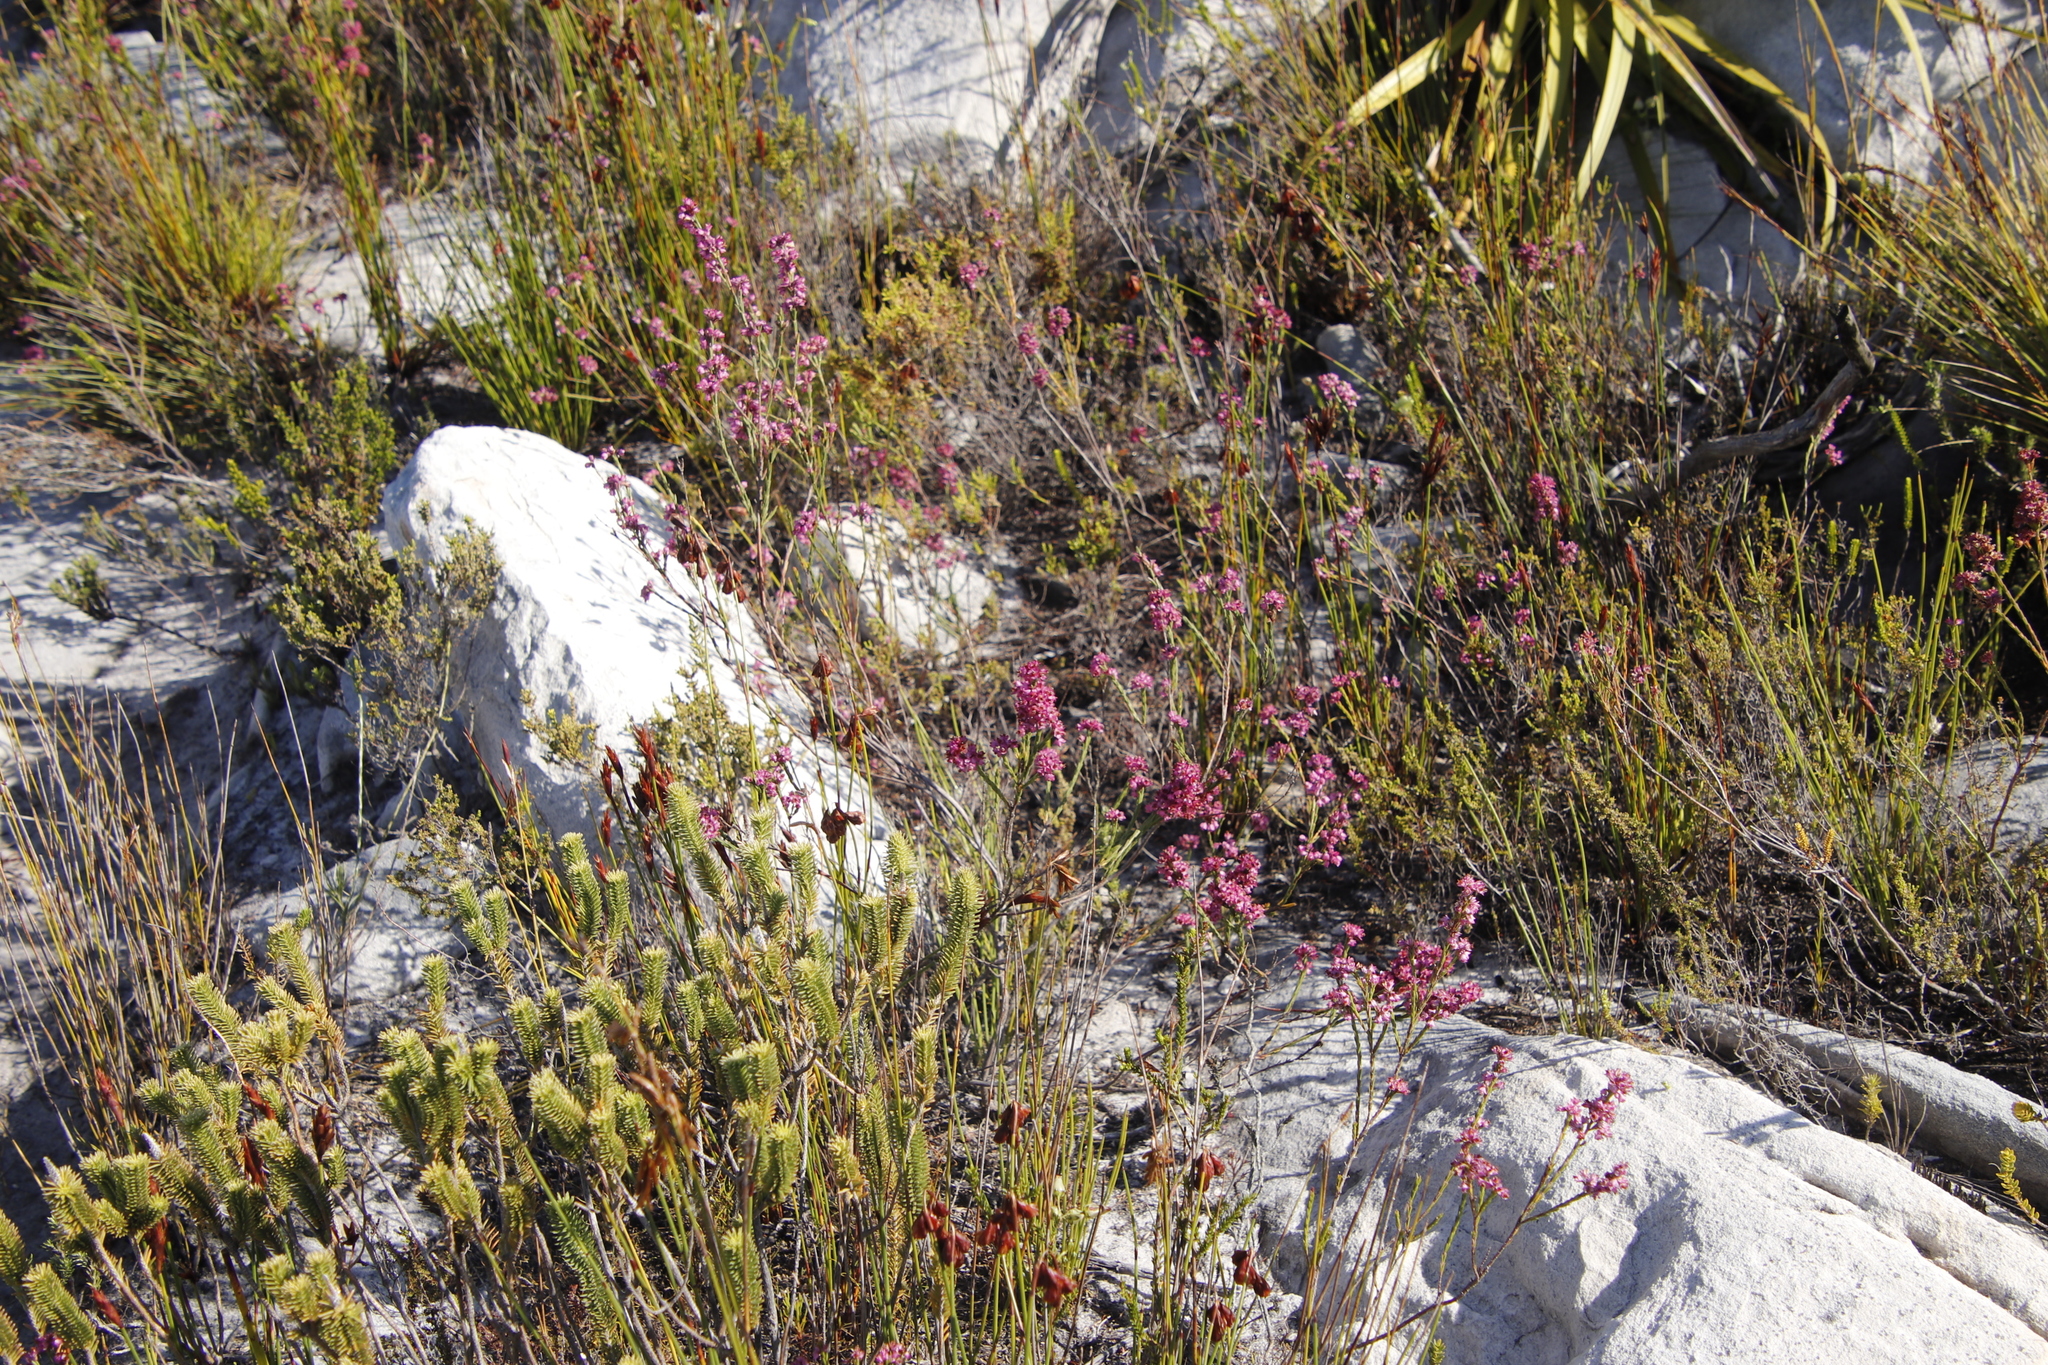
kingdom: Plantae
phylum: Tracheophyta
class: Magnoliopsida
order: Ericales
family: Ericaceae
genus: Erica
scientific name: Erica corifolia
